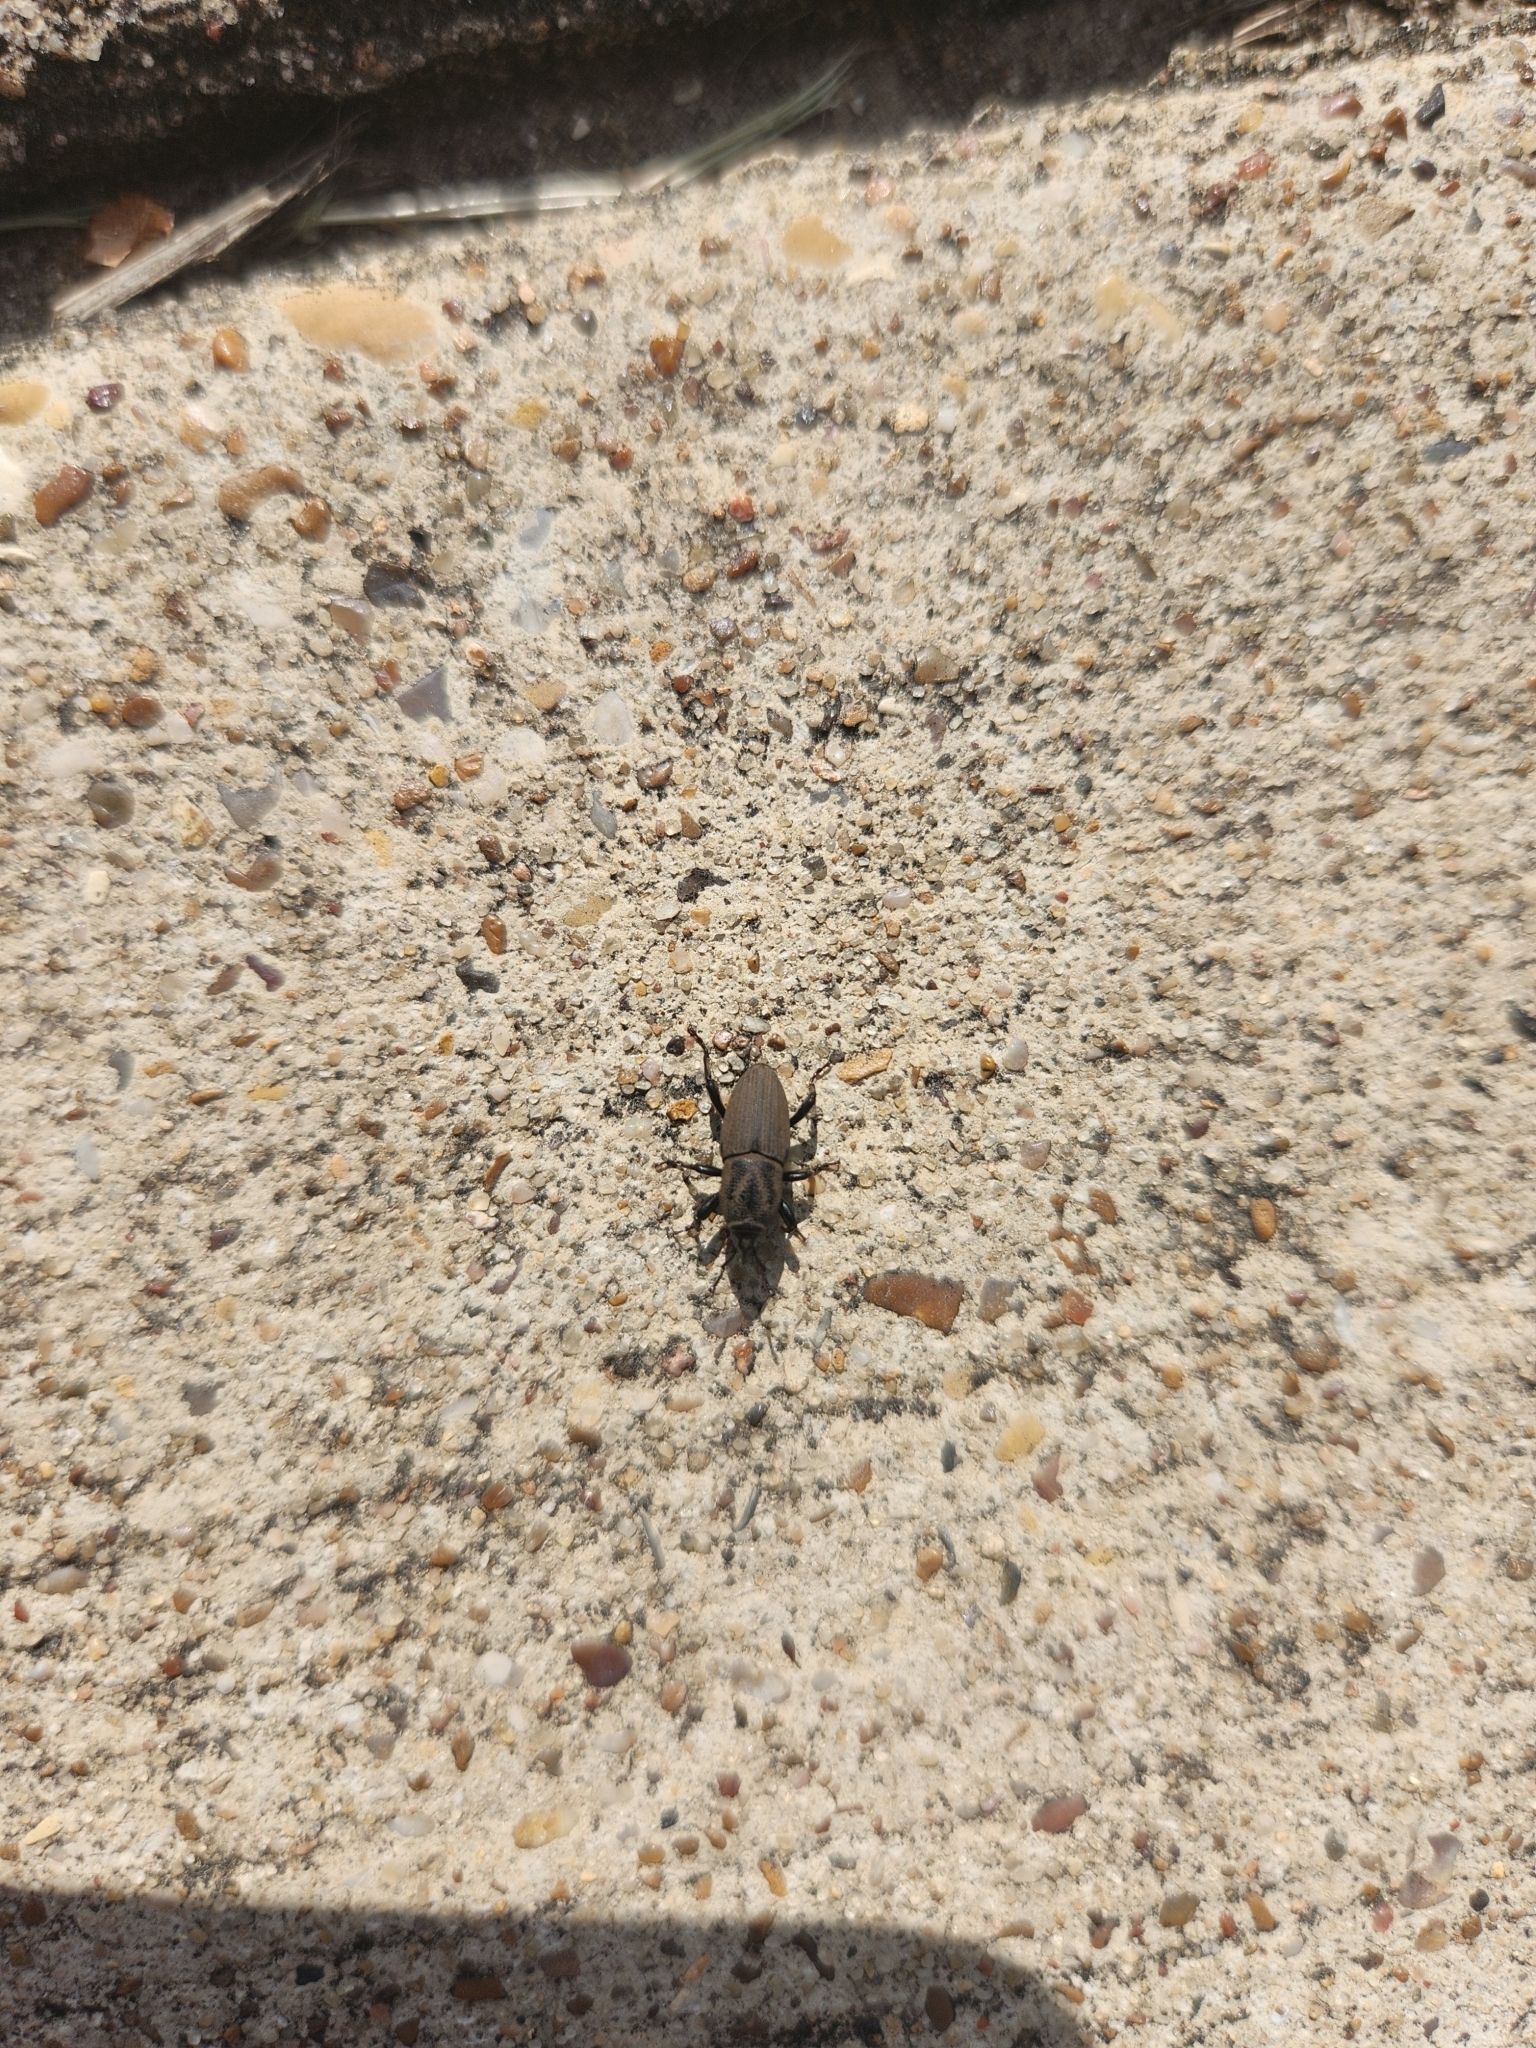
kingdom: Animalia
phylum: Arthropoda
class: Insecta
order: Coleoptera
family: Dryophthoridae
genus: Sphenophorus
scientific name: Sphenophorus coesifrons
